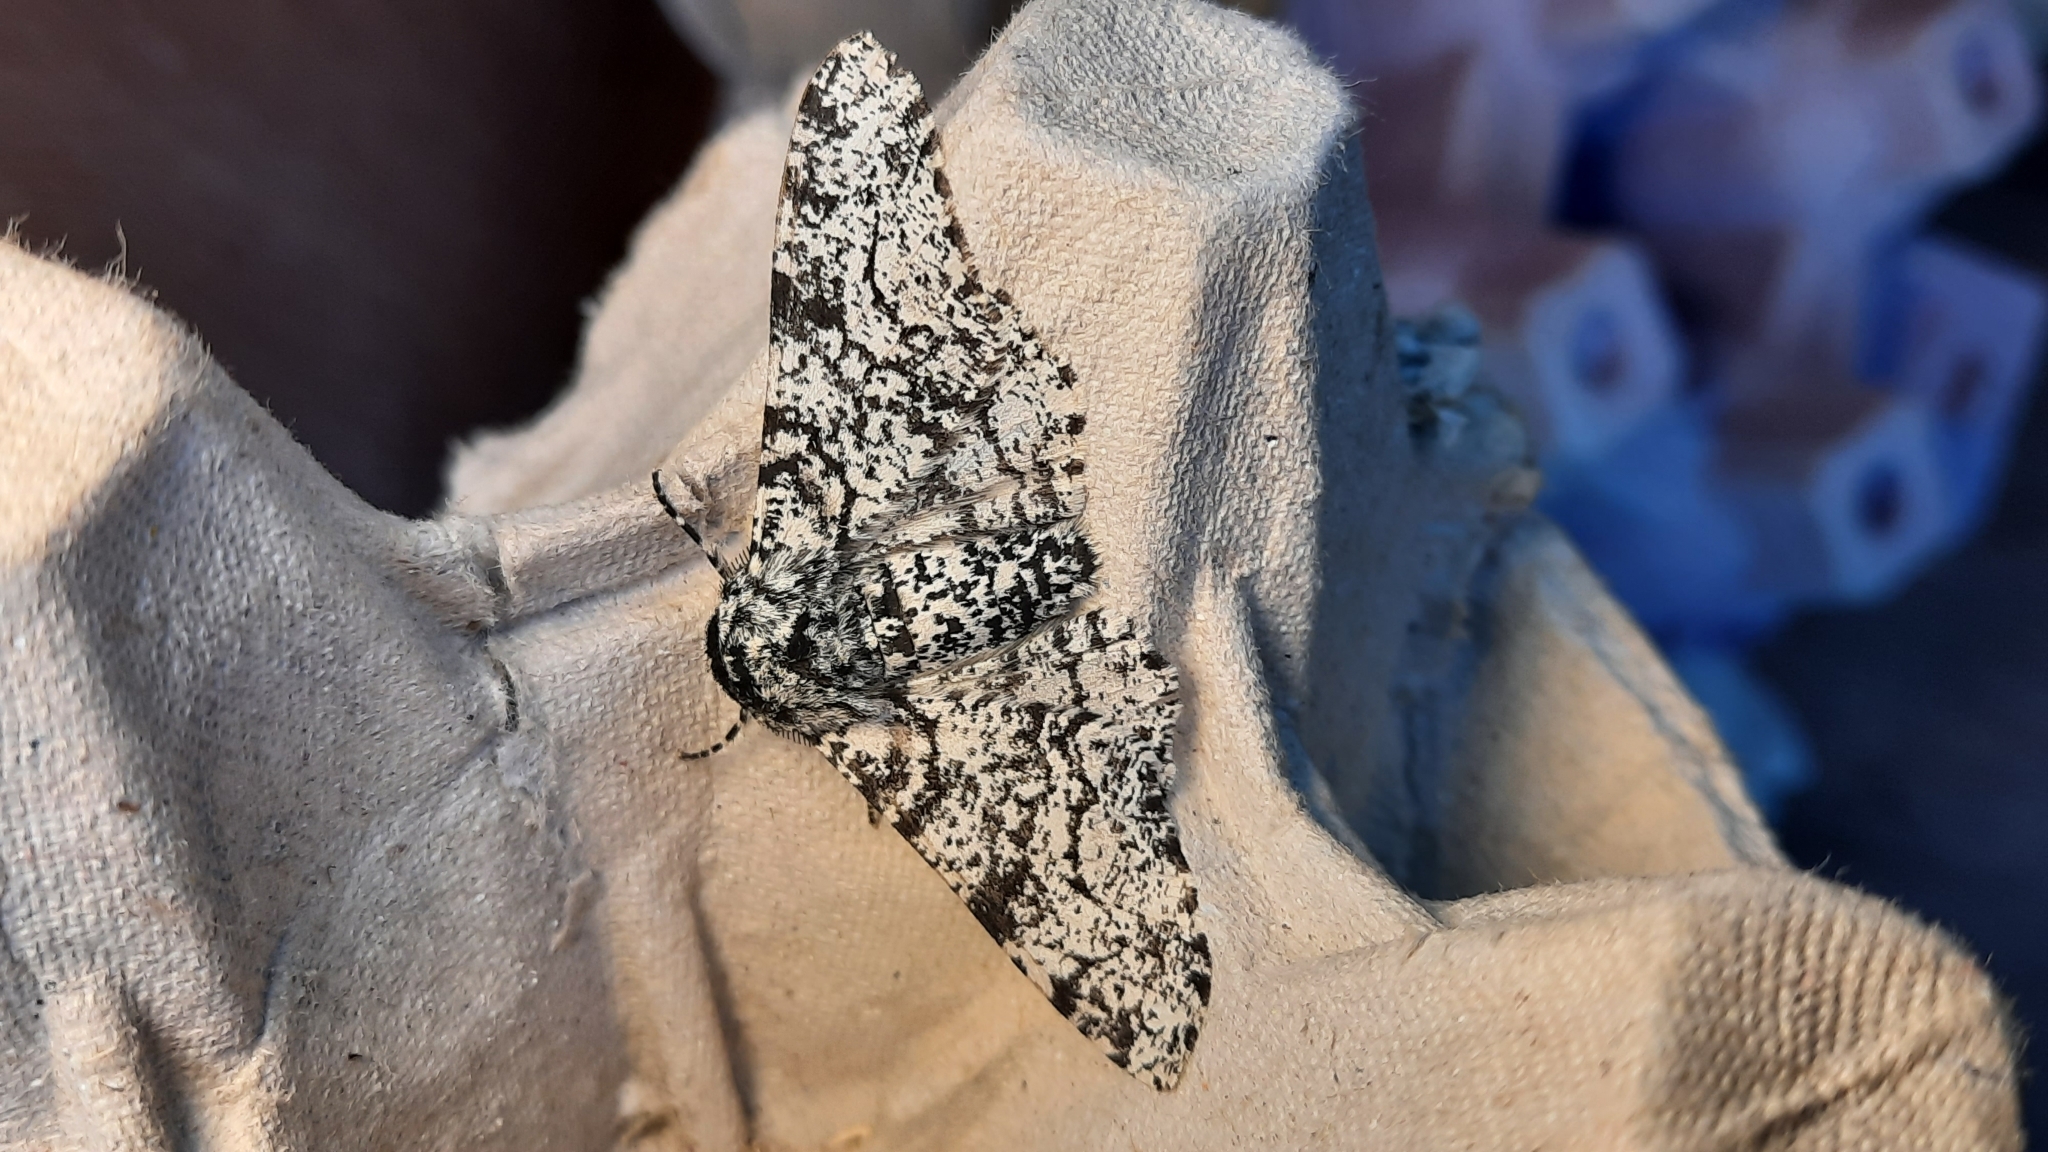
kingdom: Animalia
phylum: Arthropoda
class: Insecta
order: Lepidoptera
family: Geometridae
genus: Biston
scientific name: Biston betularia
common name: Peppered moth
